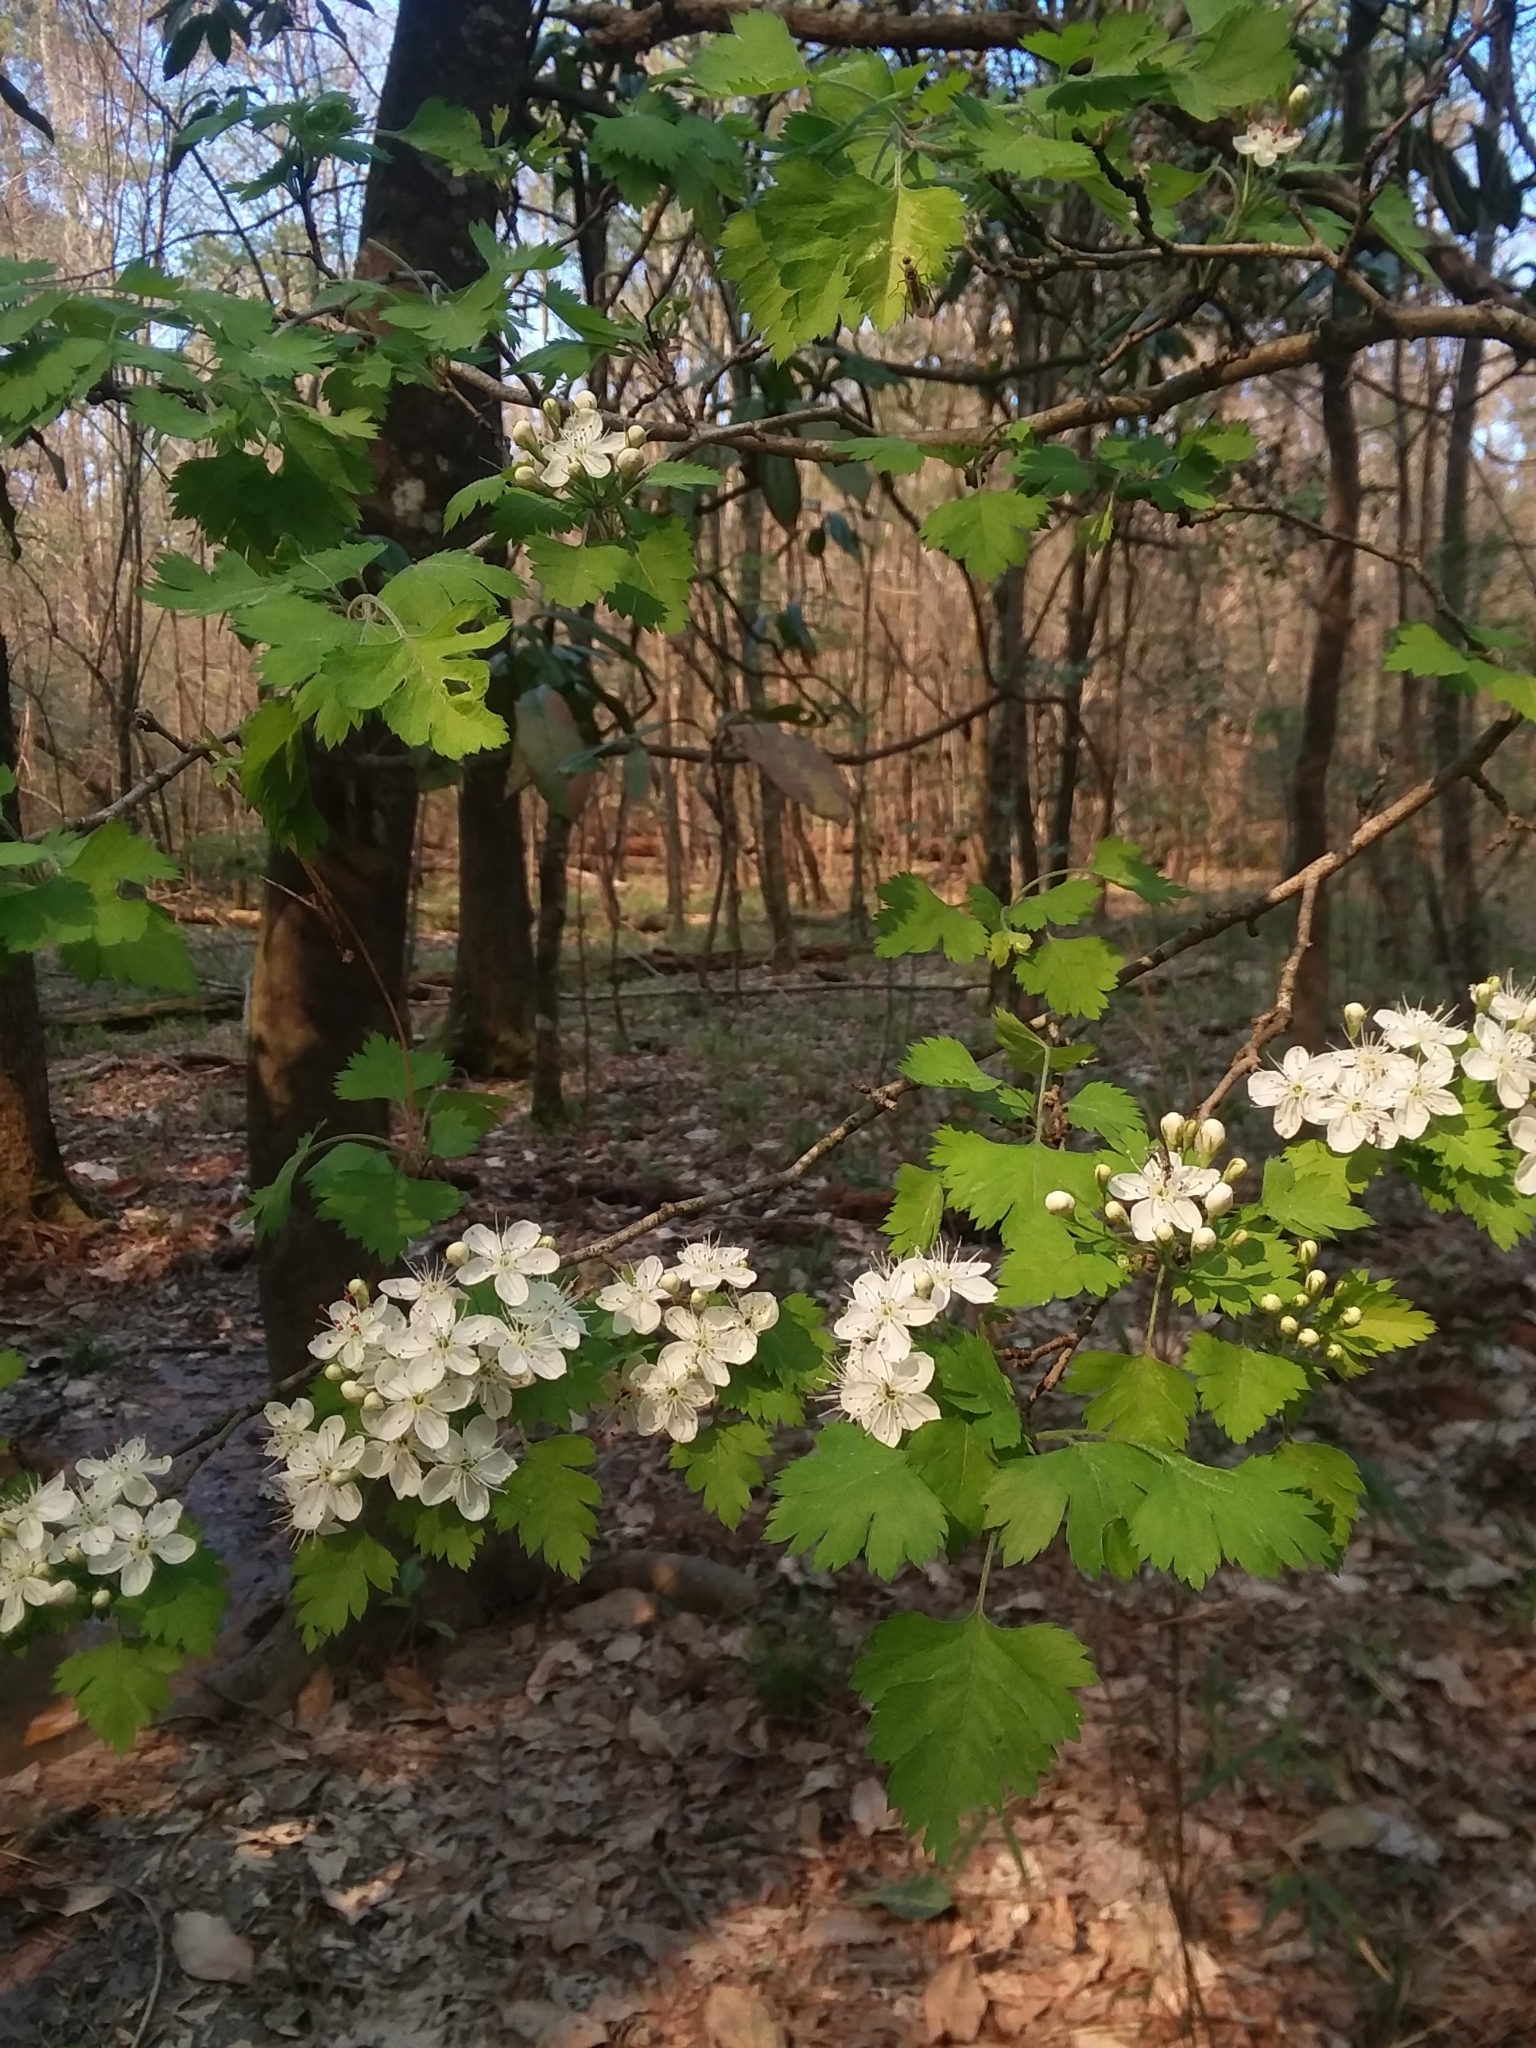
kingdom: Plantae
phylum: Tracheophyta
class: Magnoliopsida
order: Rosales
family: Rosaceae
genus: Crataegus
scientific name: Crataegus marshallii
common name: Parsley-hawthorn
